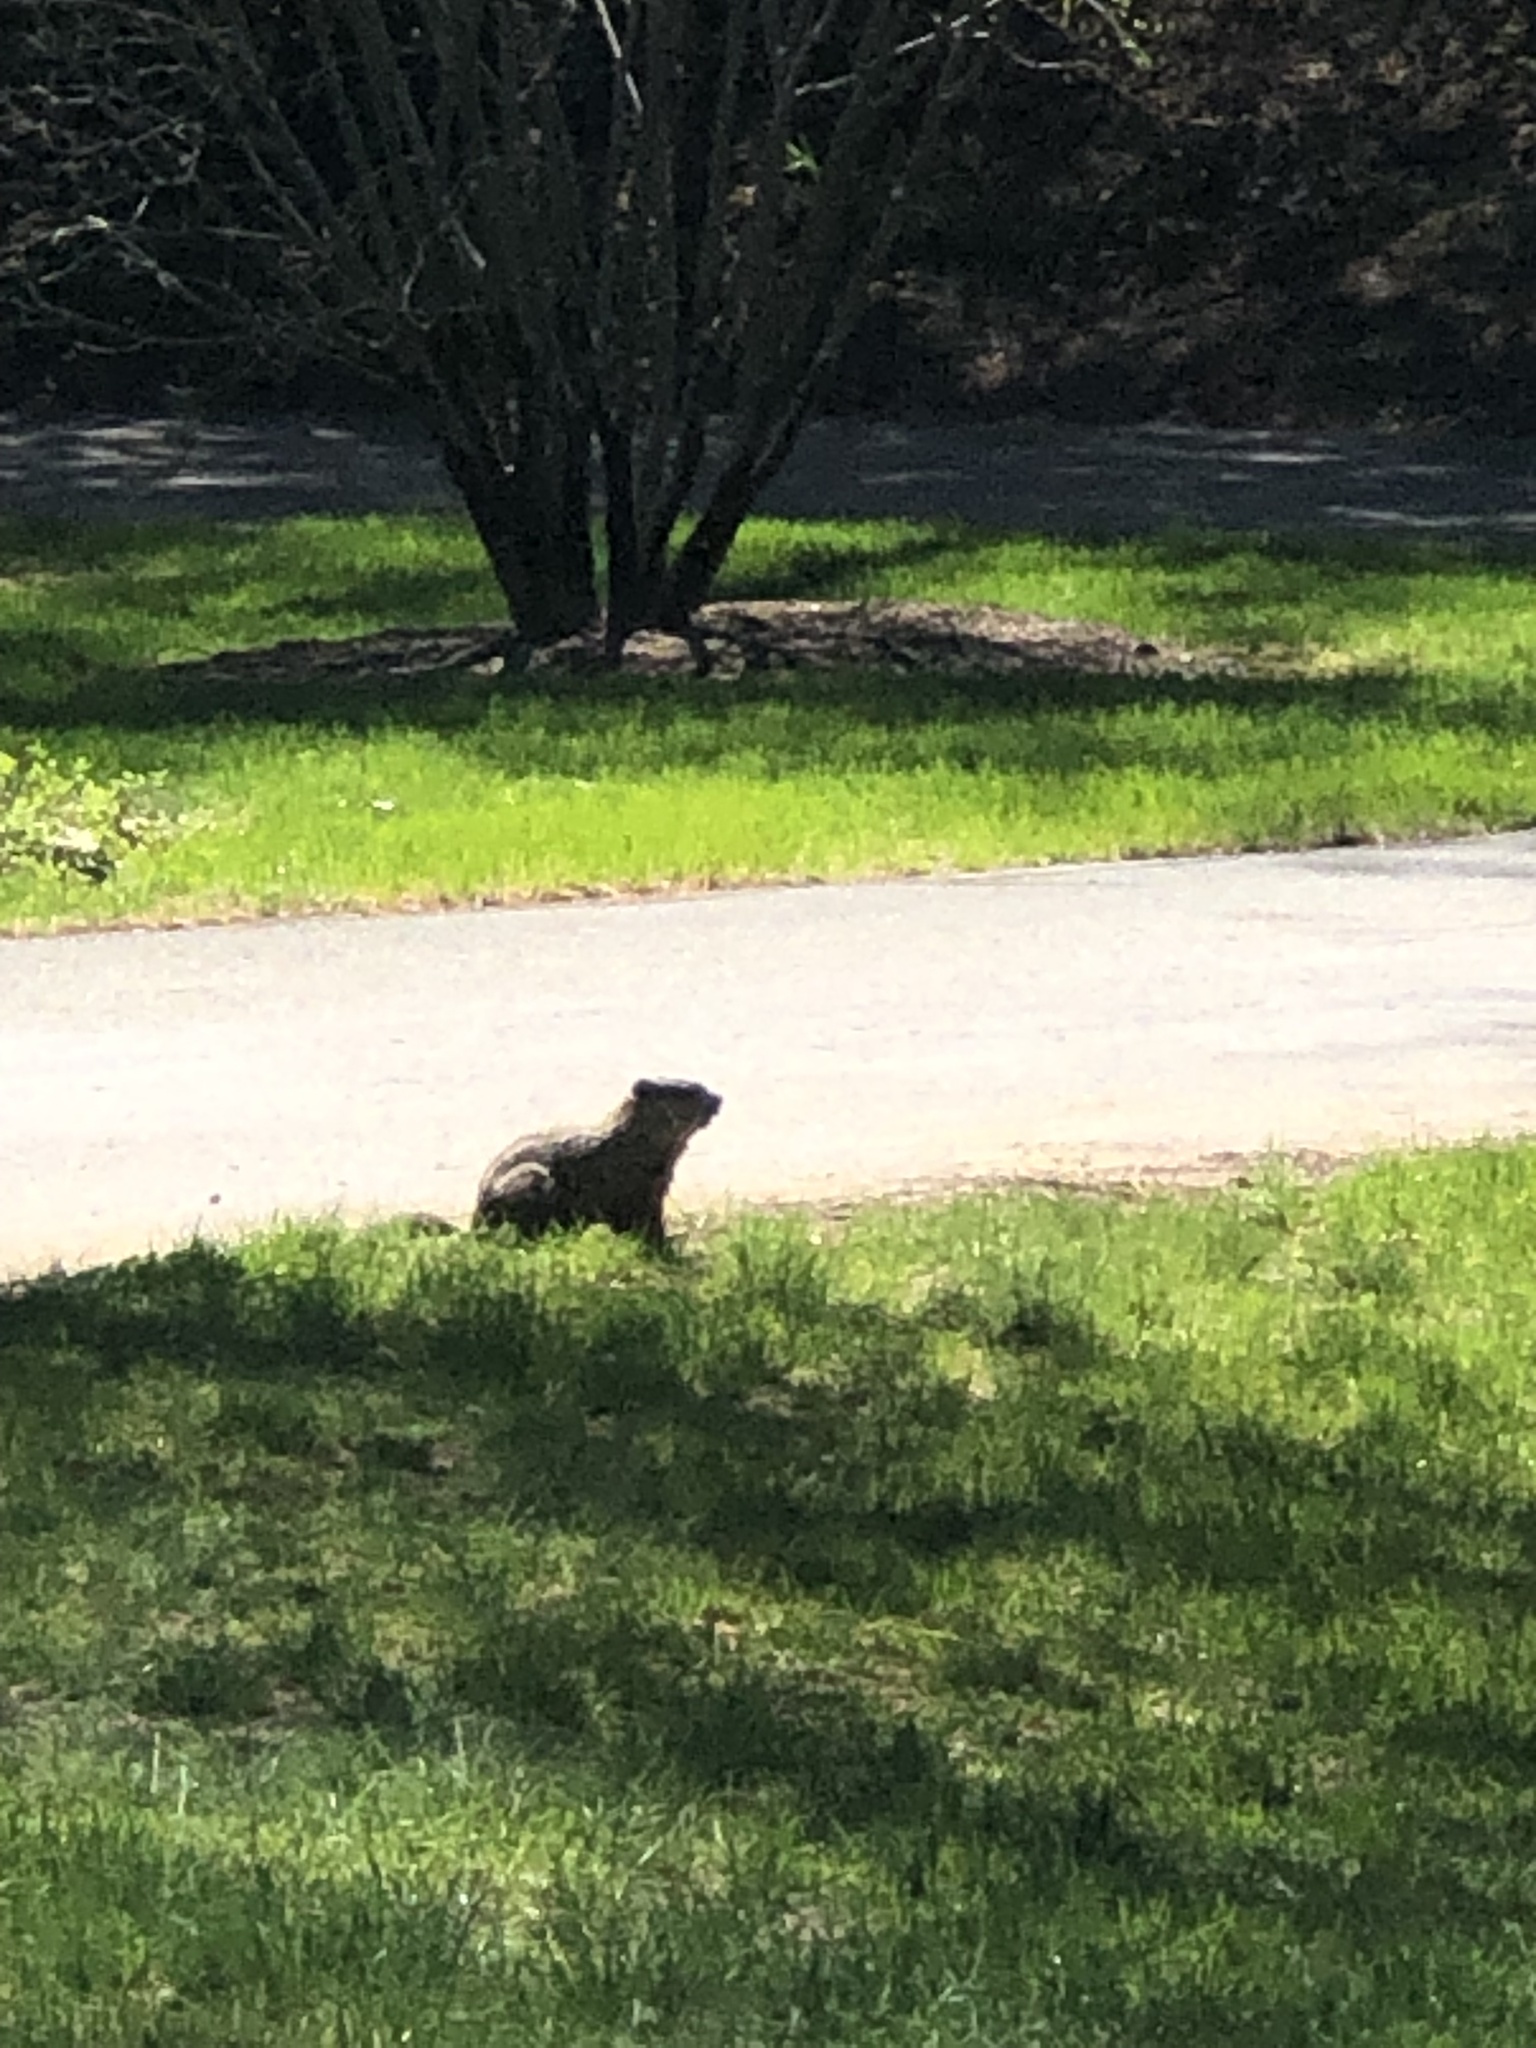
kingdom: Animalia
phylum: Chordata
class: Mammalia
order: Rodentia
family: Sciuridae
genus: Marmota
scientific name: Marmota monax
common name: Groundhog
